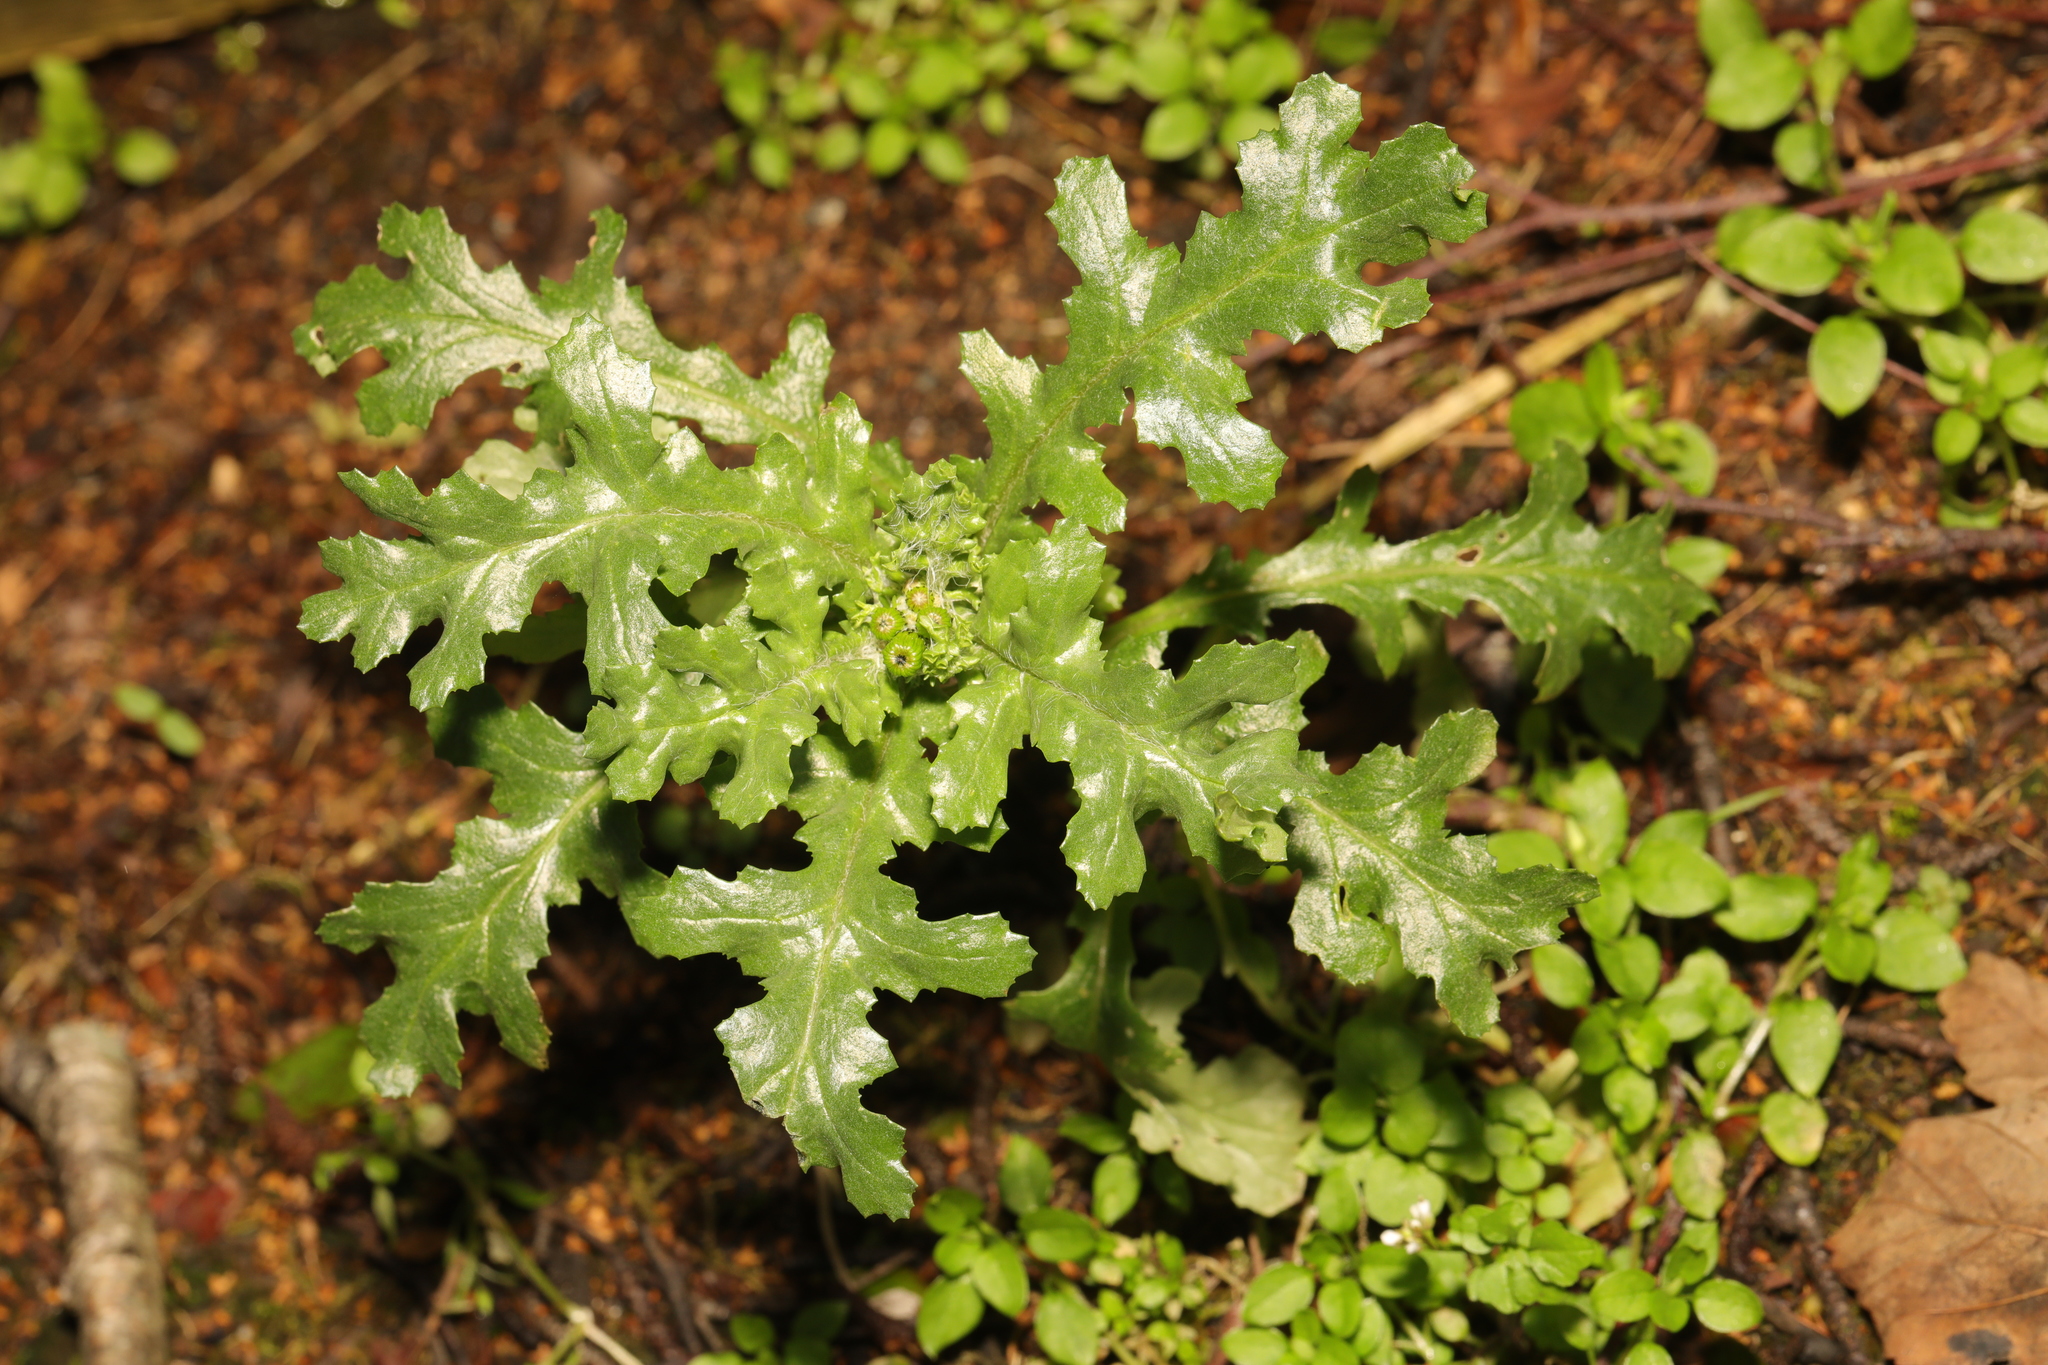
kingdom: Plantae
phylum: Tracheophyta
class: Magnoliopsida
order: Asterales
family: Asteraceae
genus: Senecio
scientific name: Senecio vulgaris
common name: Old-man-in-the-spring
